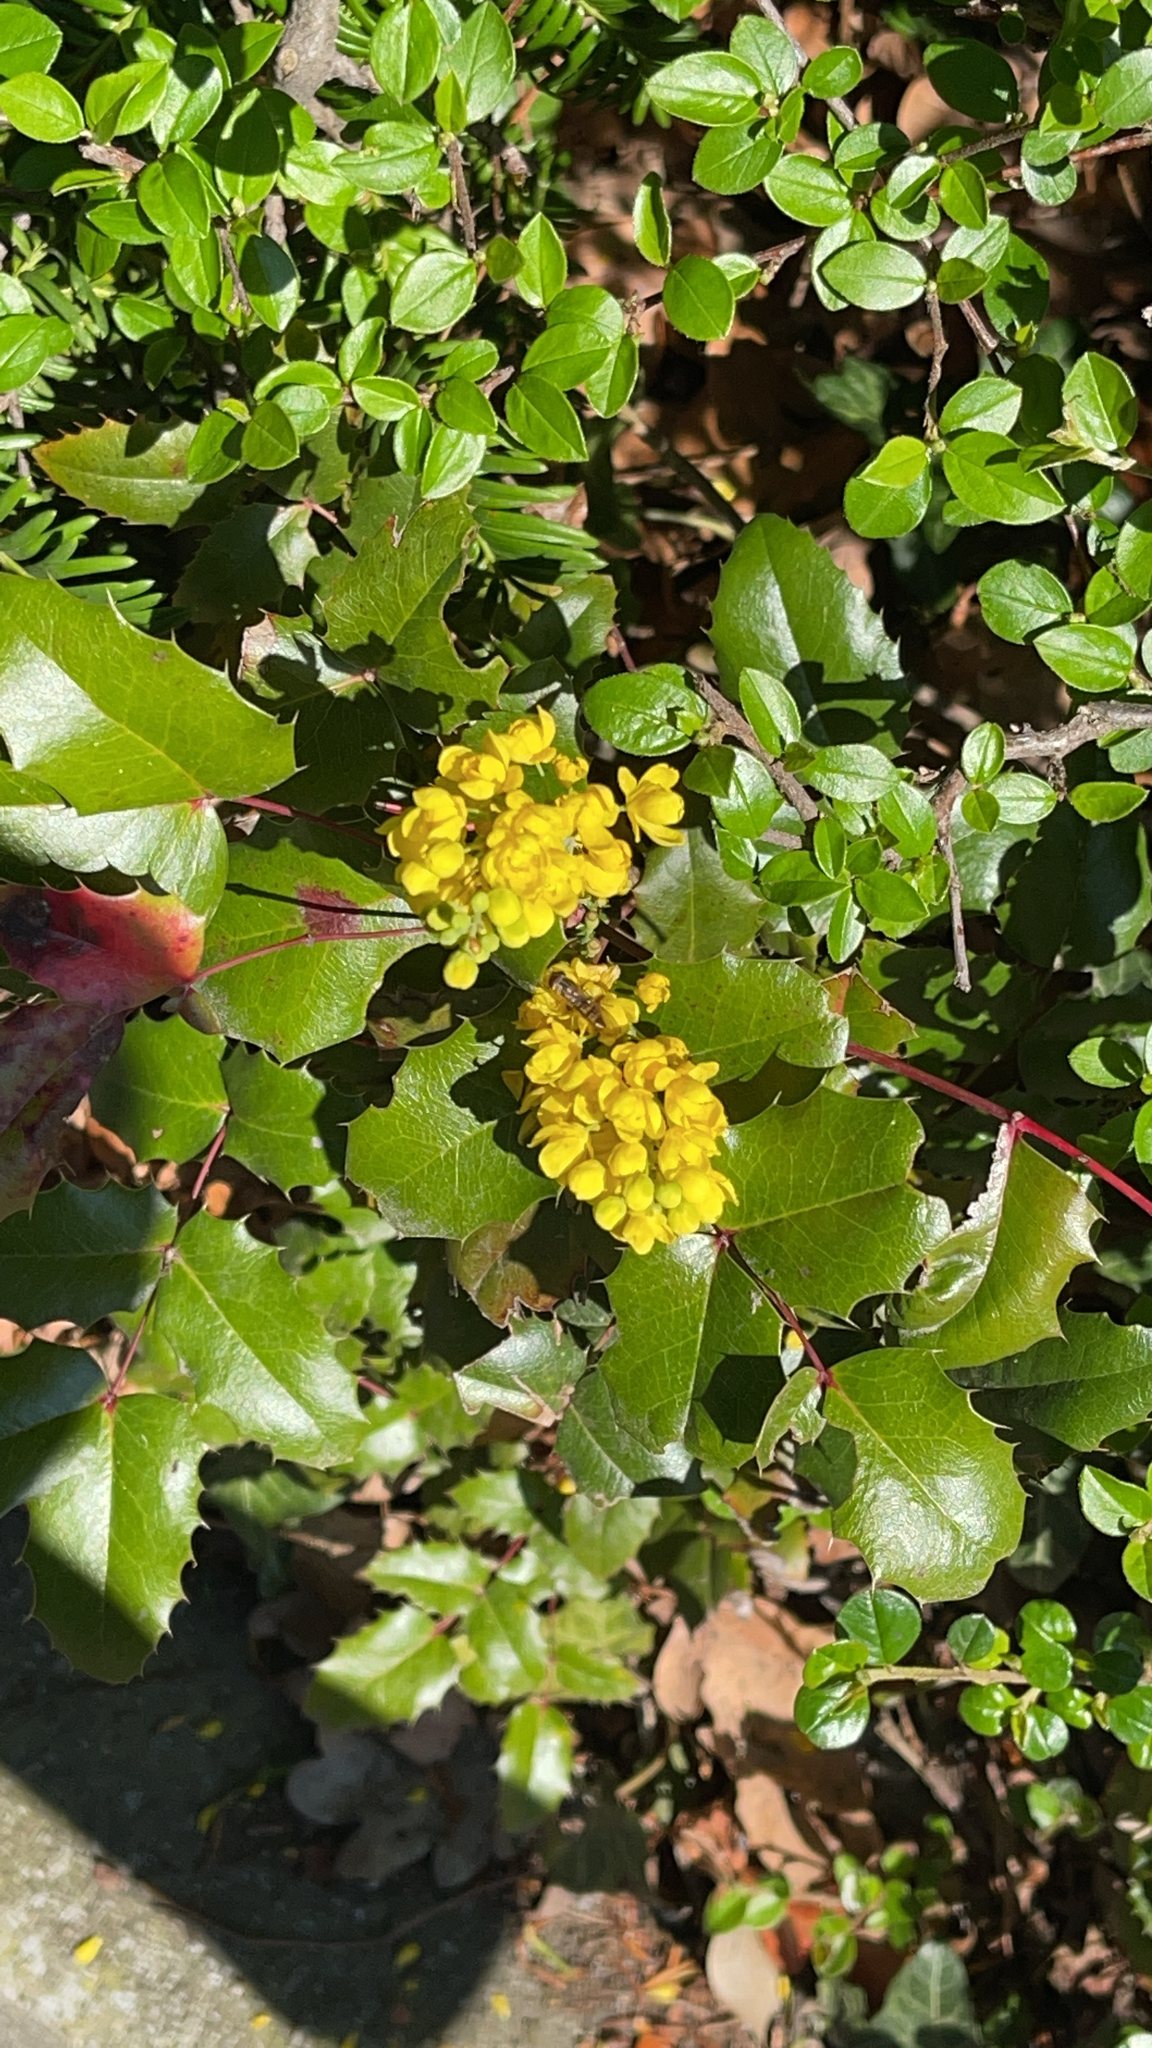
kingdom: Plantae
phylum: Tracheophyta
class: Magnoliopsida
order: Ranunculales
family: Berberidaceae
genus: Mahonia
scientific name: Mahonia aquifolium
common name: Oregon-grape
